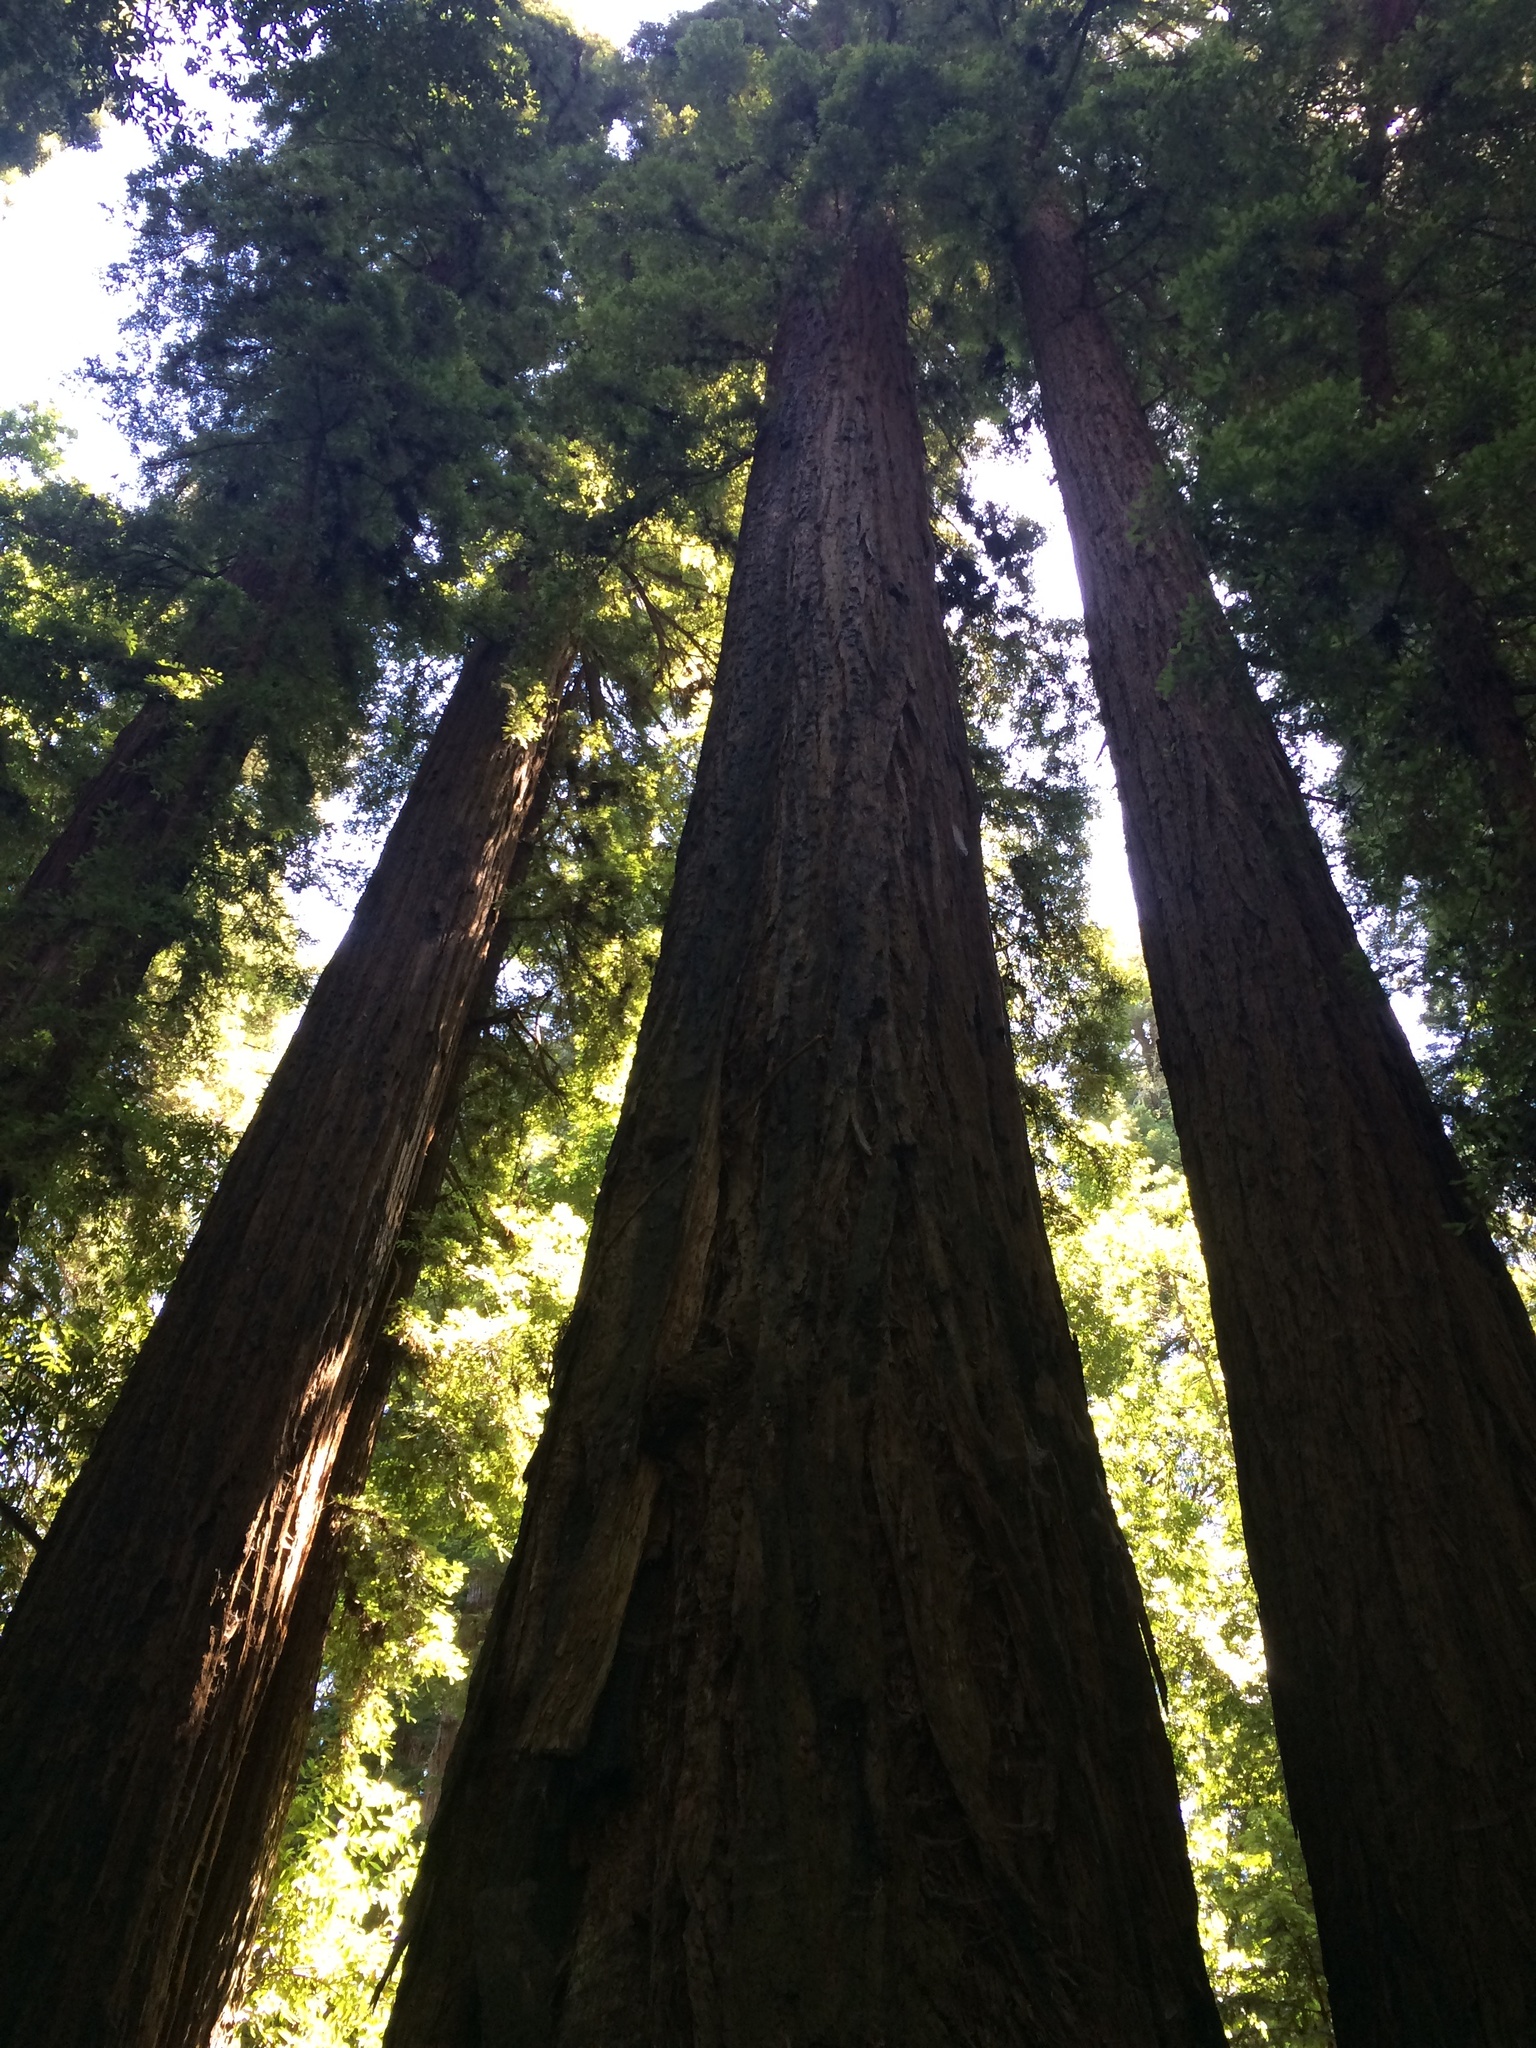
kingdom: Plantae
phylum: Tracheophyta
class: Pinopsida
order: Pinales
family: Cupressaceae
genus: Sequoia
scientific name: Sequoia sempervirens
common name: Coast redwood
